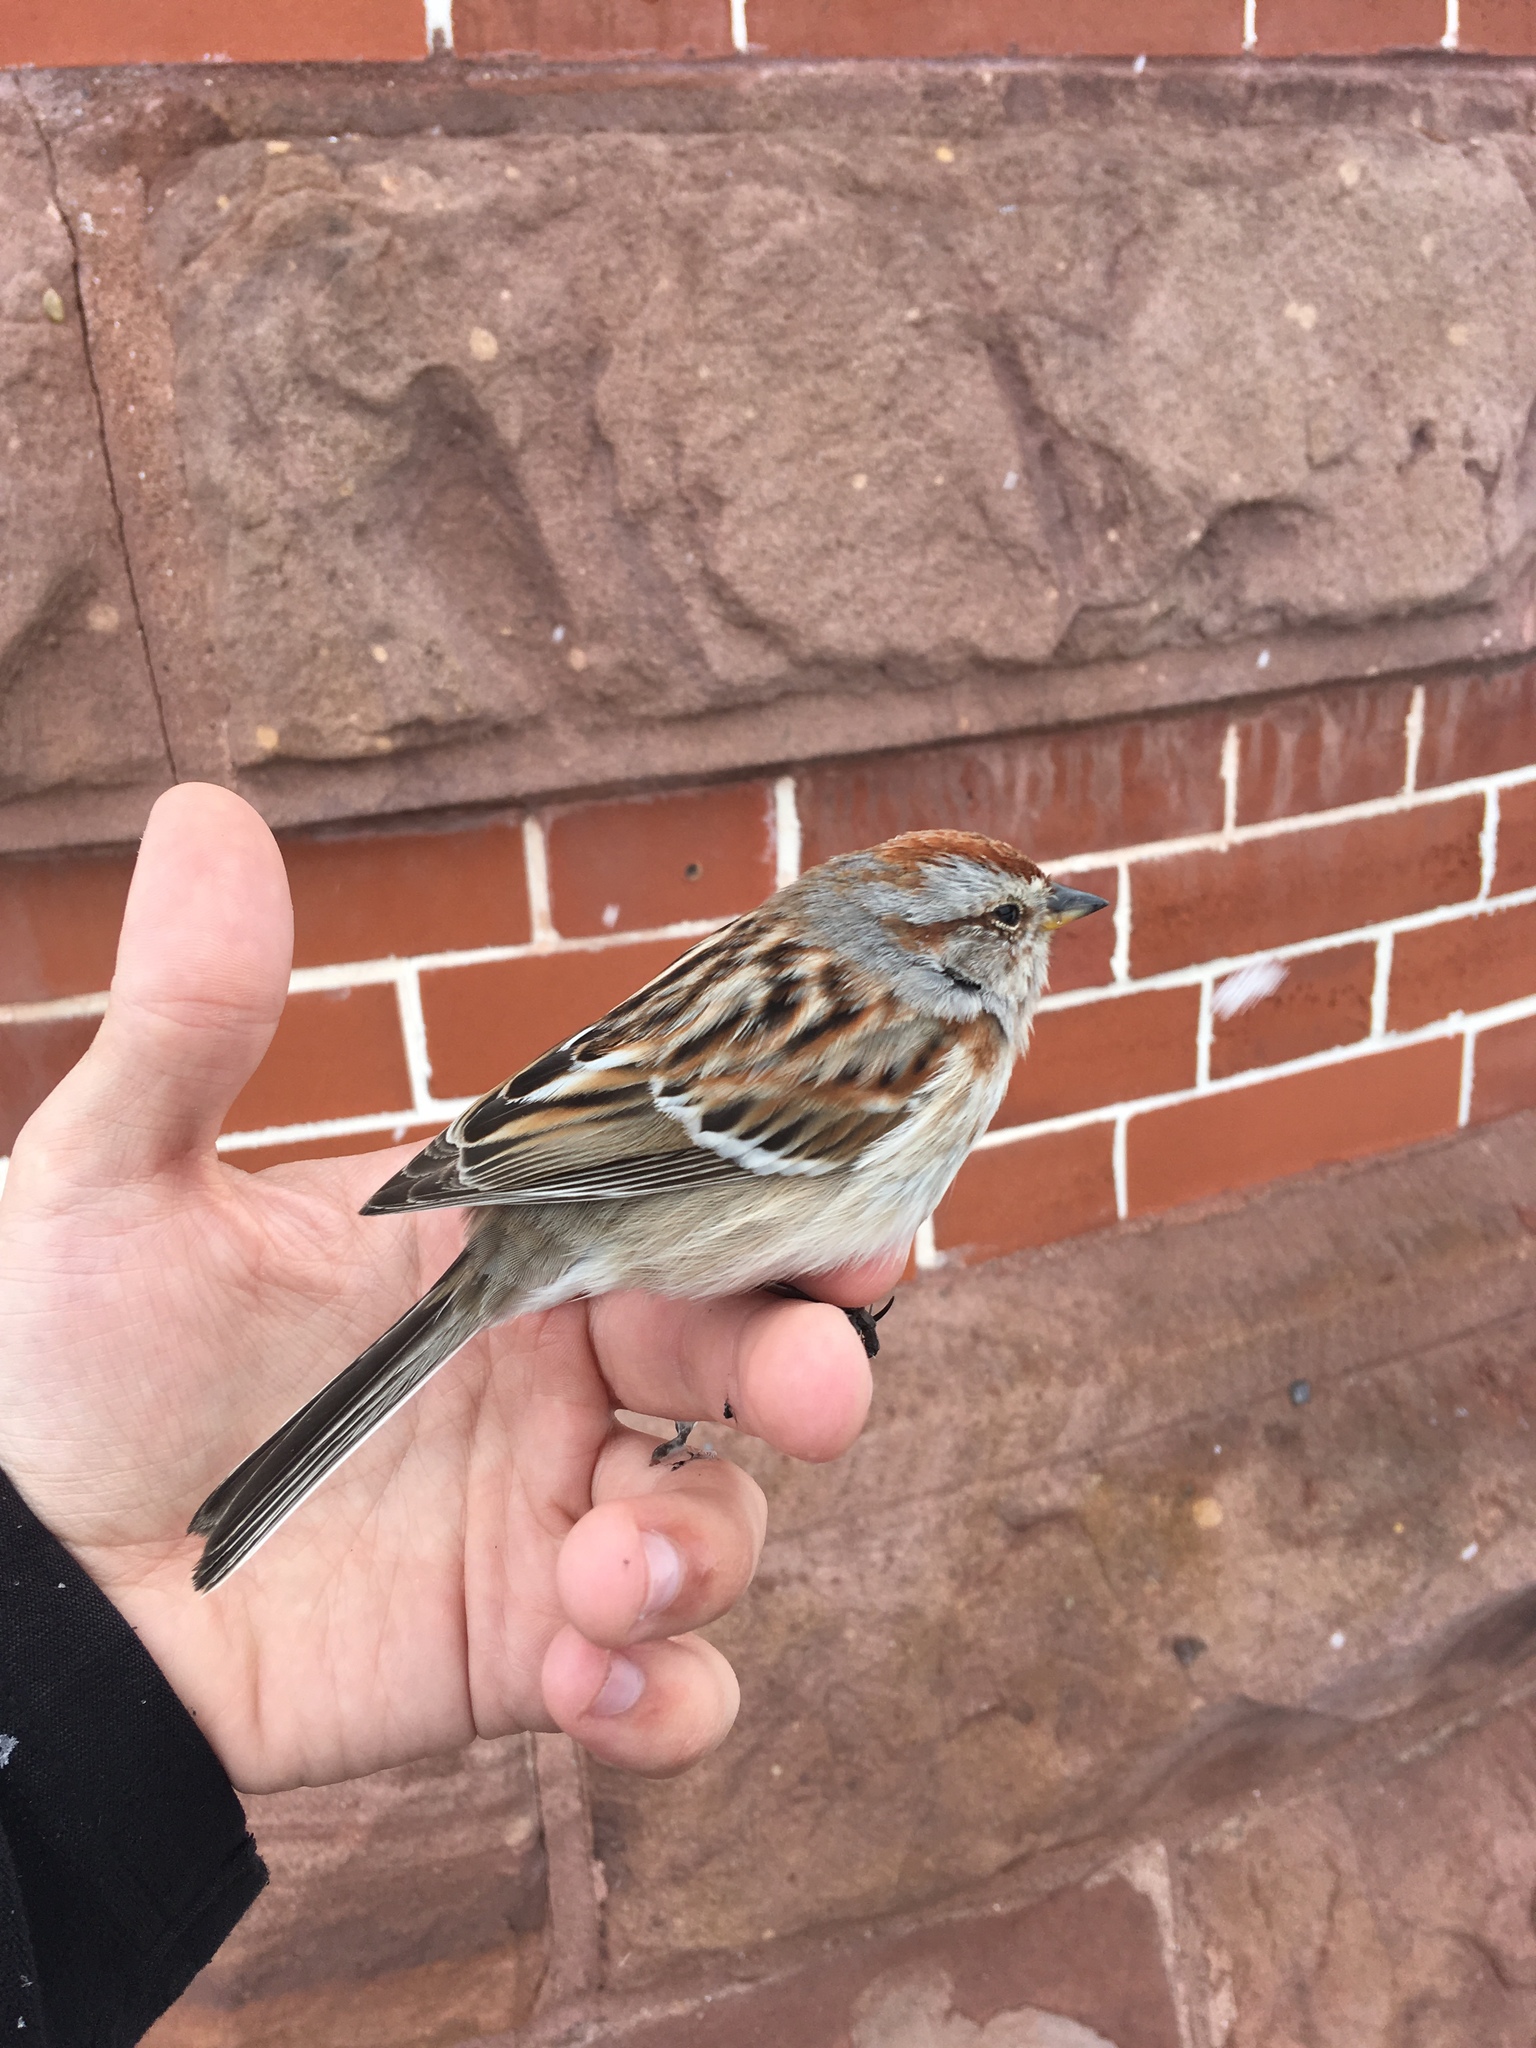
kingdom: Animalia
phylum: Chordata
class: Aves
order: Passeriformes
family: Passerellidae
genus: Spizelloides
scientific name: Spizelloides arborea
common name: American tree sparrow
